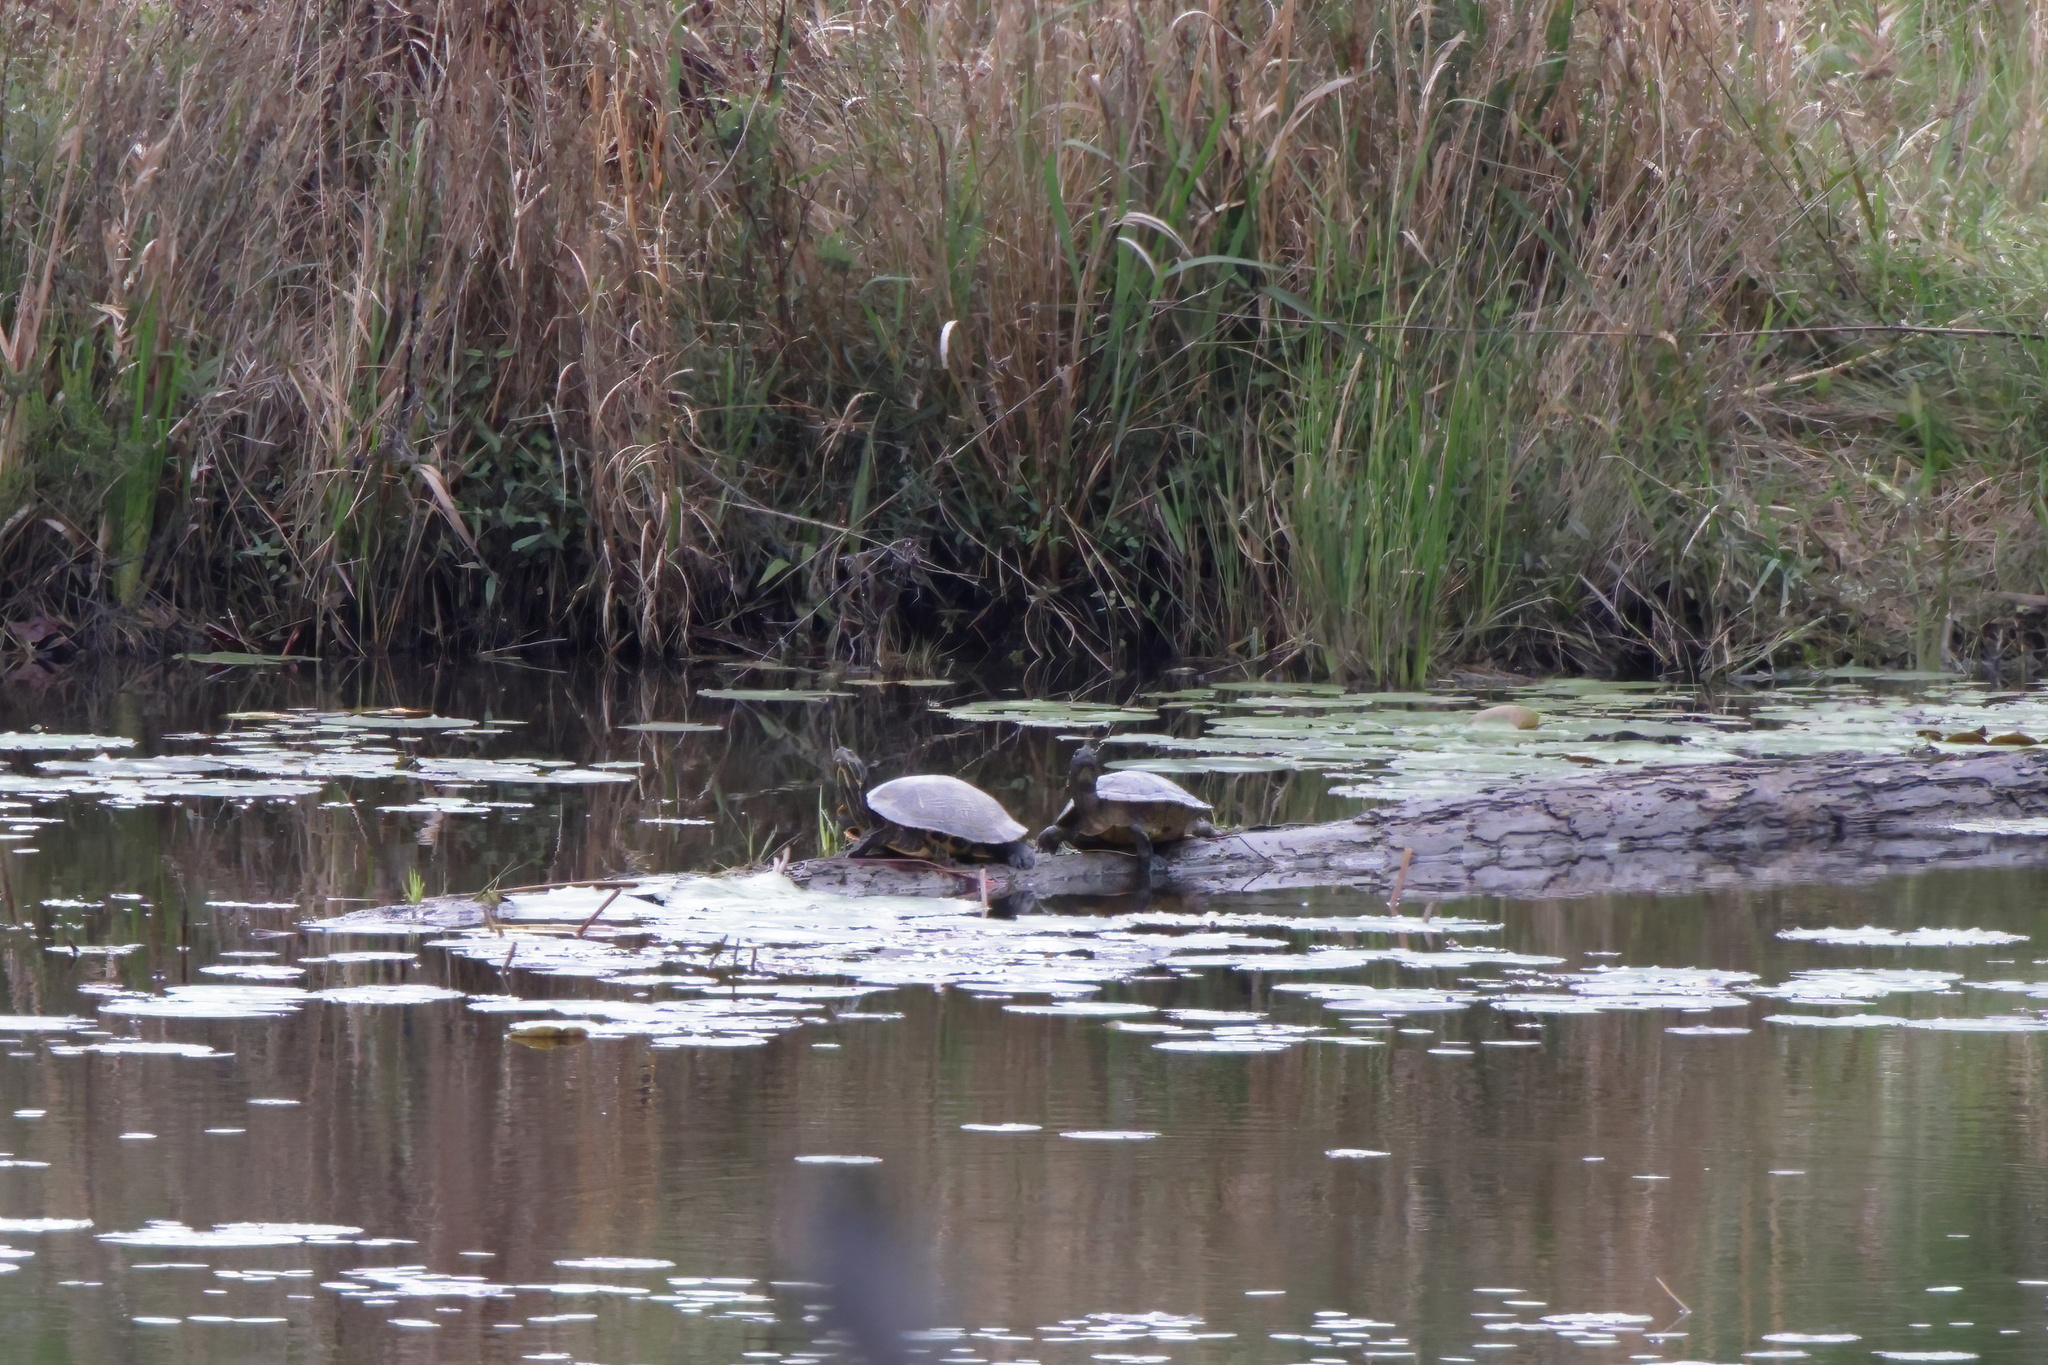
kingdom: Animalia
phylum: Chordata
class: Testudines
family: Emydidae
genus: Trachemys
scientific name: Trachemys scripta
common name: Slider
